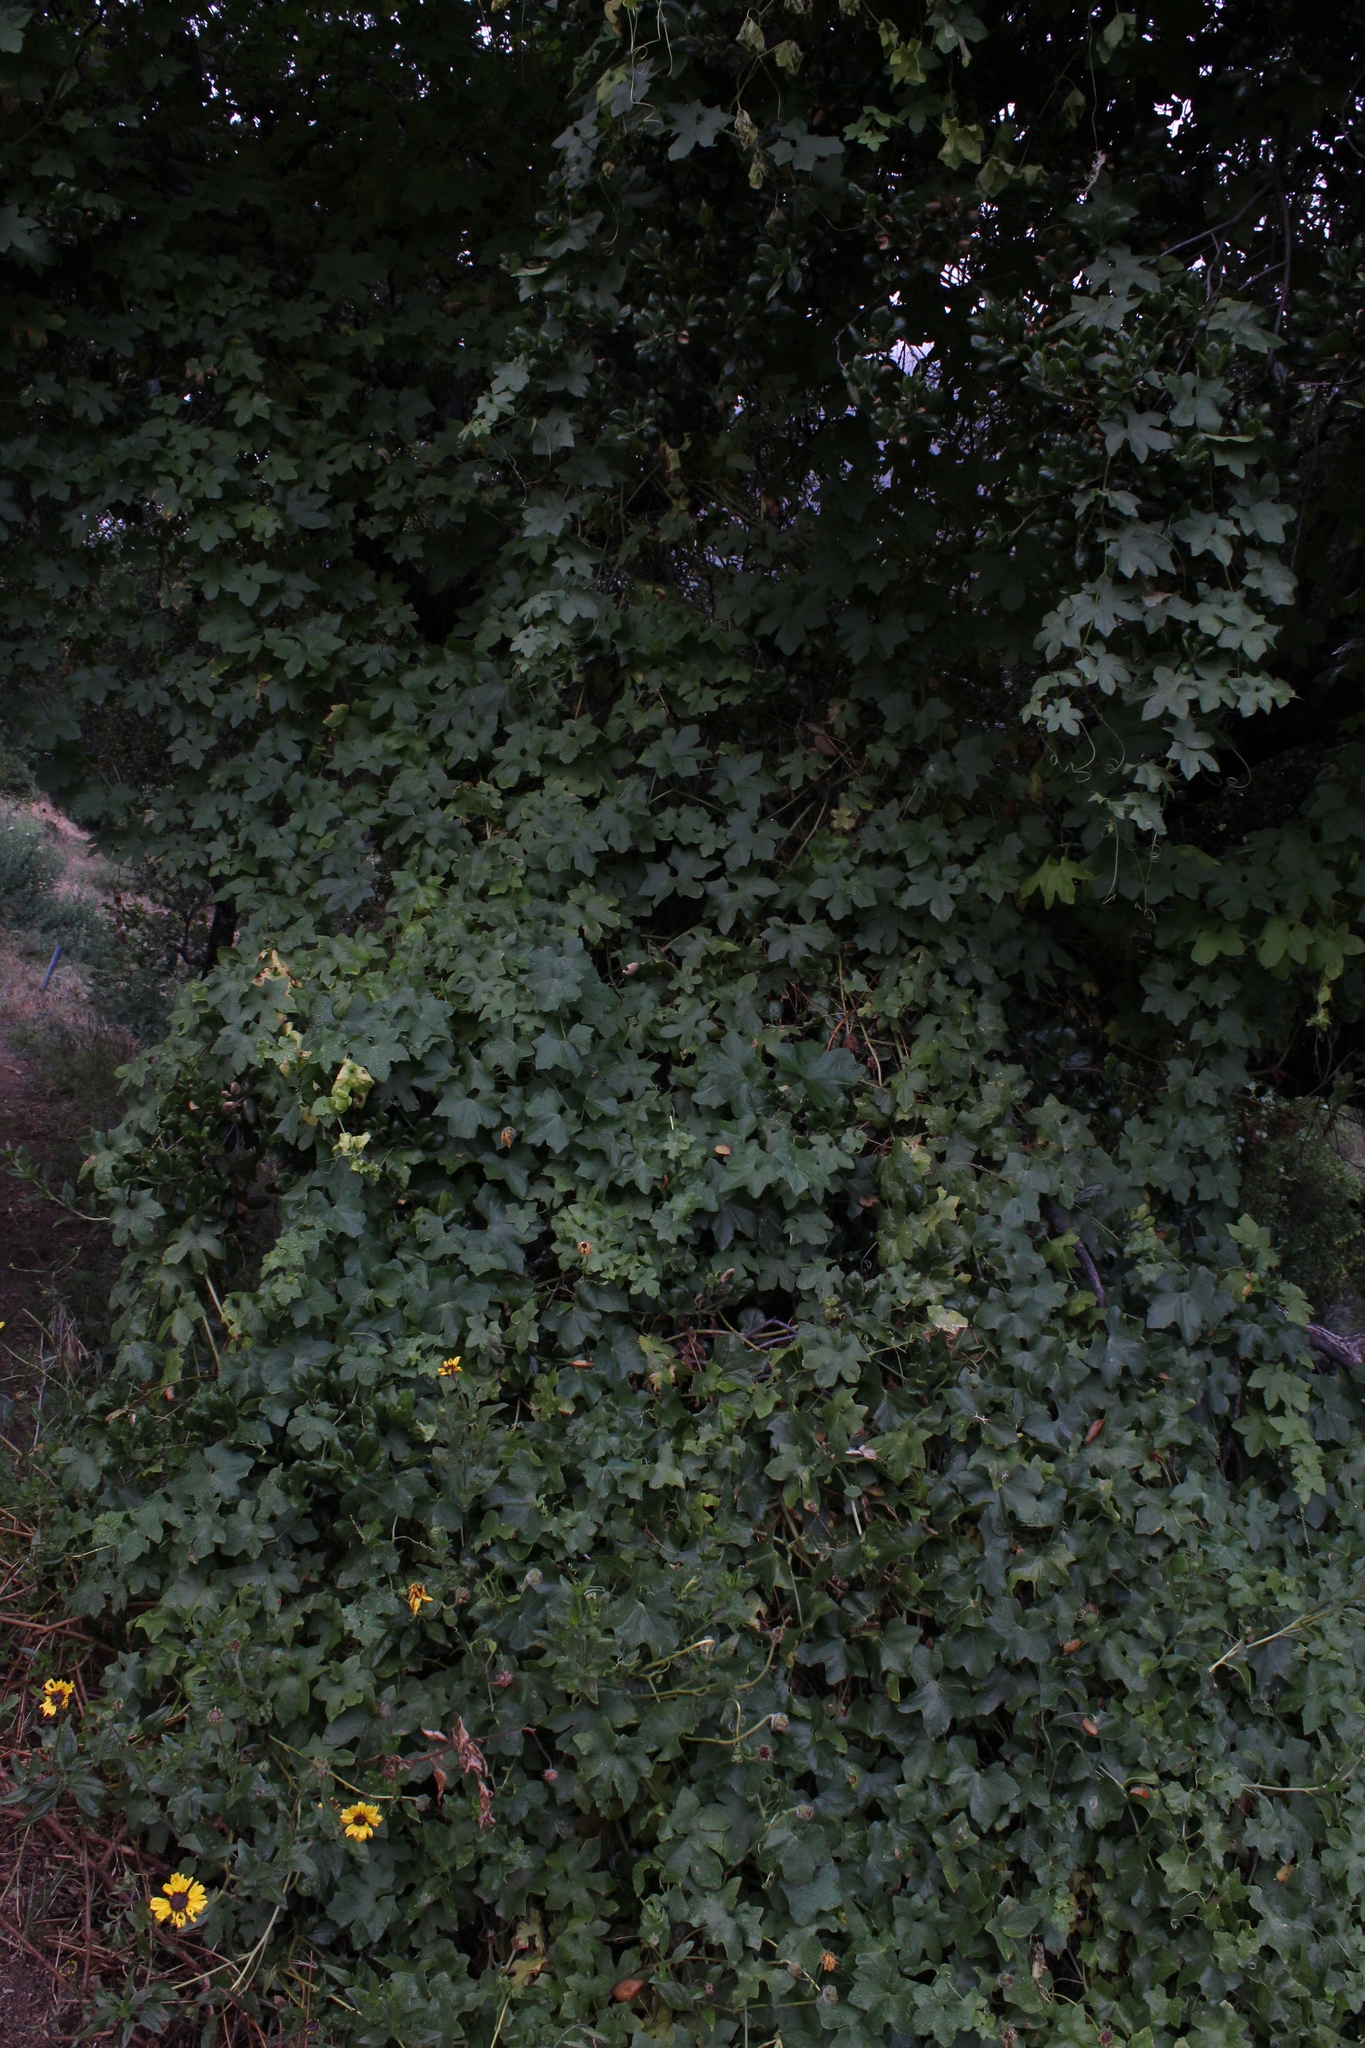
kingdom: Plantae
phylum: Tracheophyta
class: Magnoliopsida
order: Cucurbitales
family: Cucurbitaceae
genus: Marah
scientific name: Marah macrocarpa
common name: Cucamonga manroot
